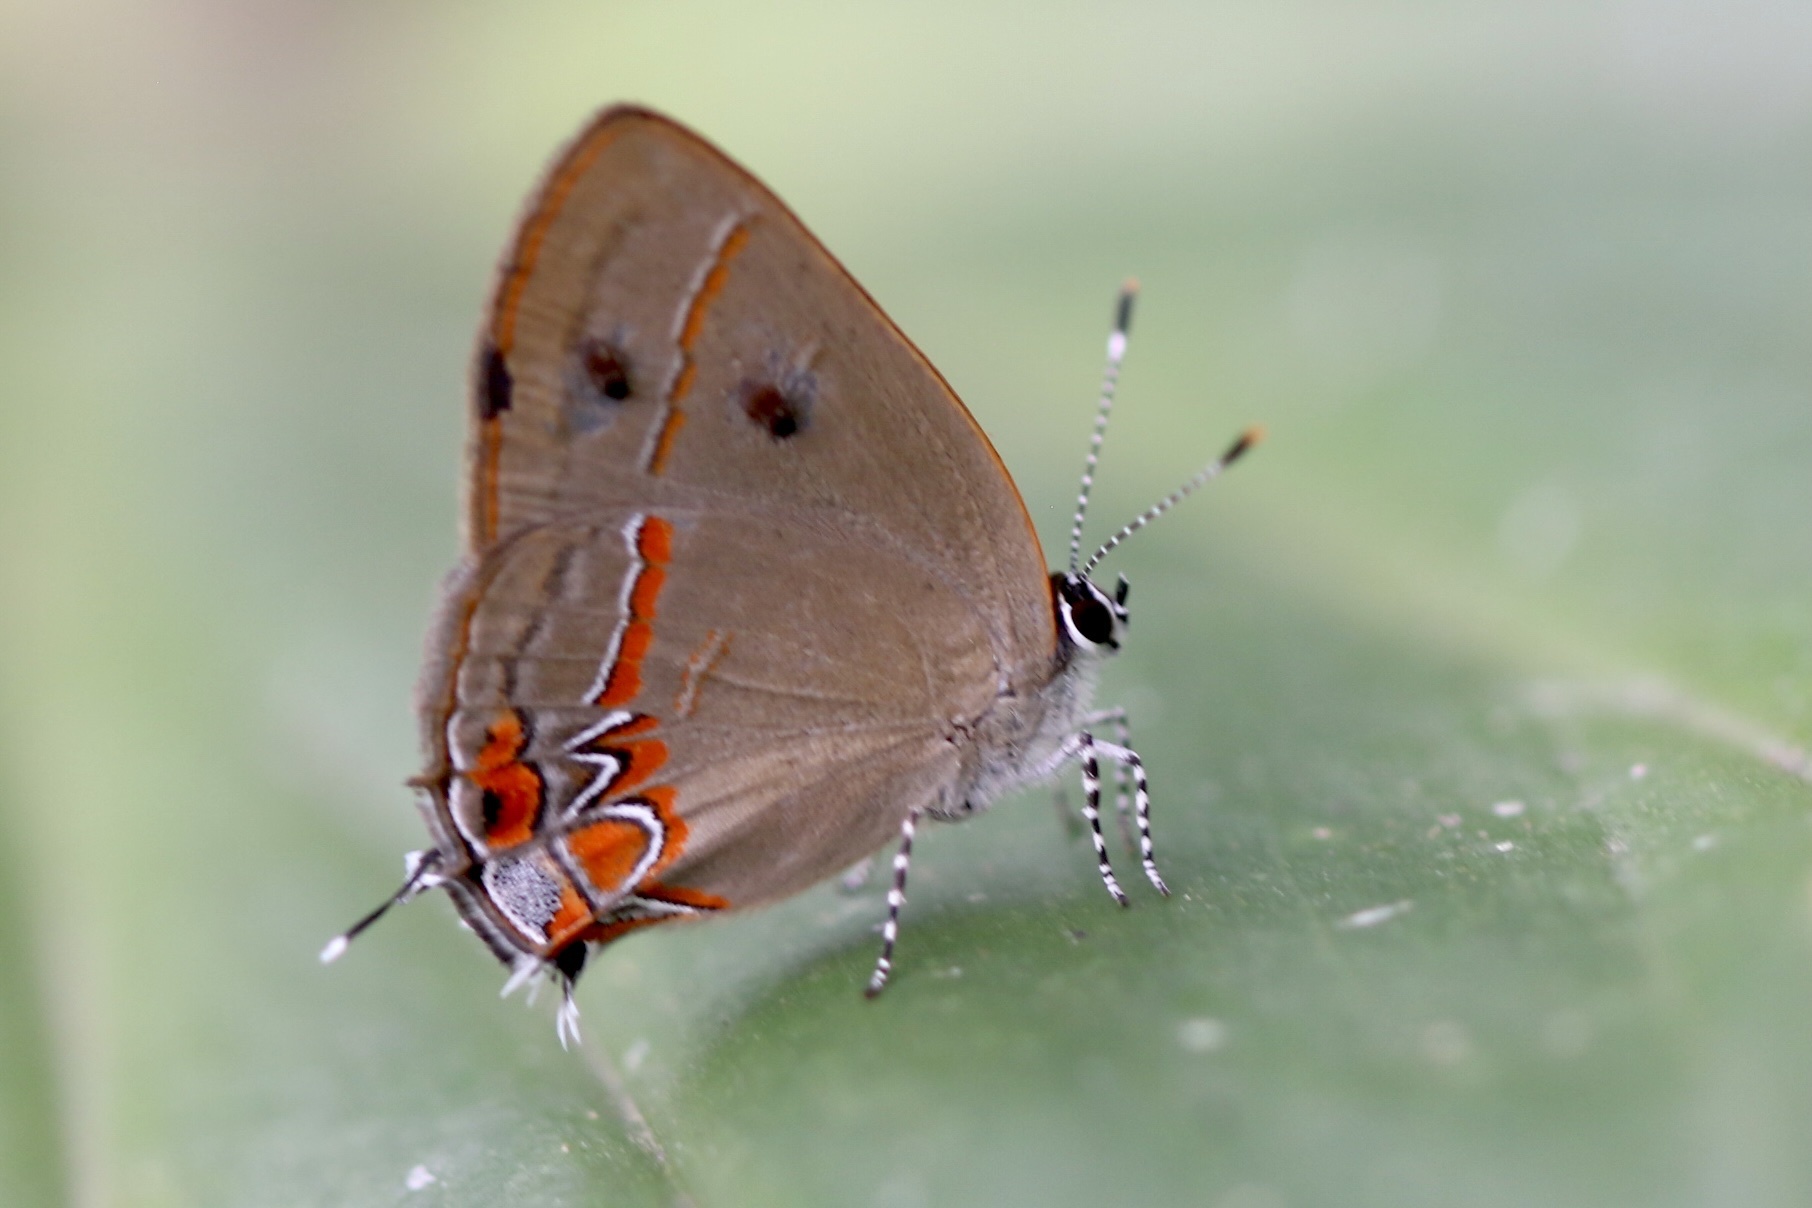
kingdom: Animalia
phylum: Arthropoda
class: Insecta
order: Lepidoptera
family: Lycaenidae
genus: Calycopis
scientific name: Calycopis partunda
